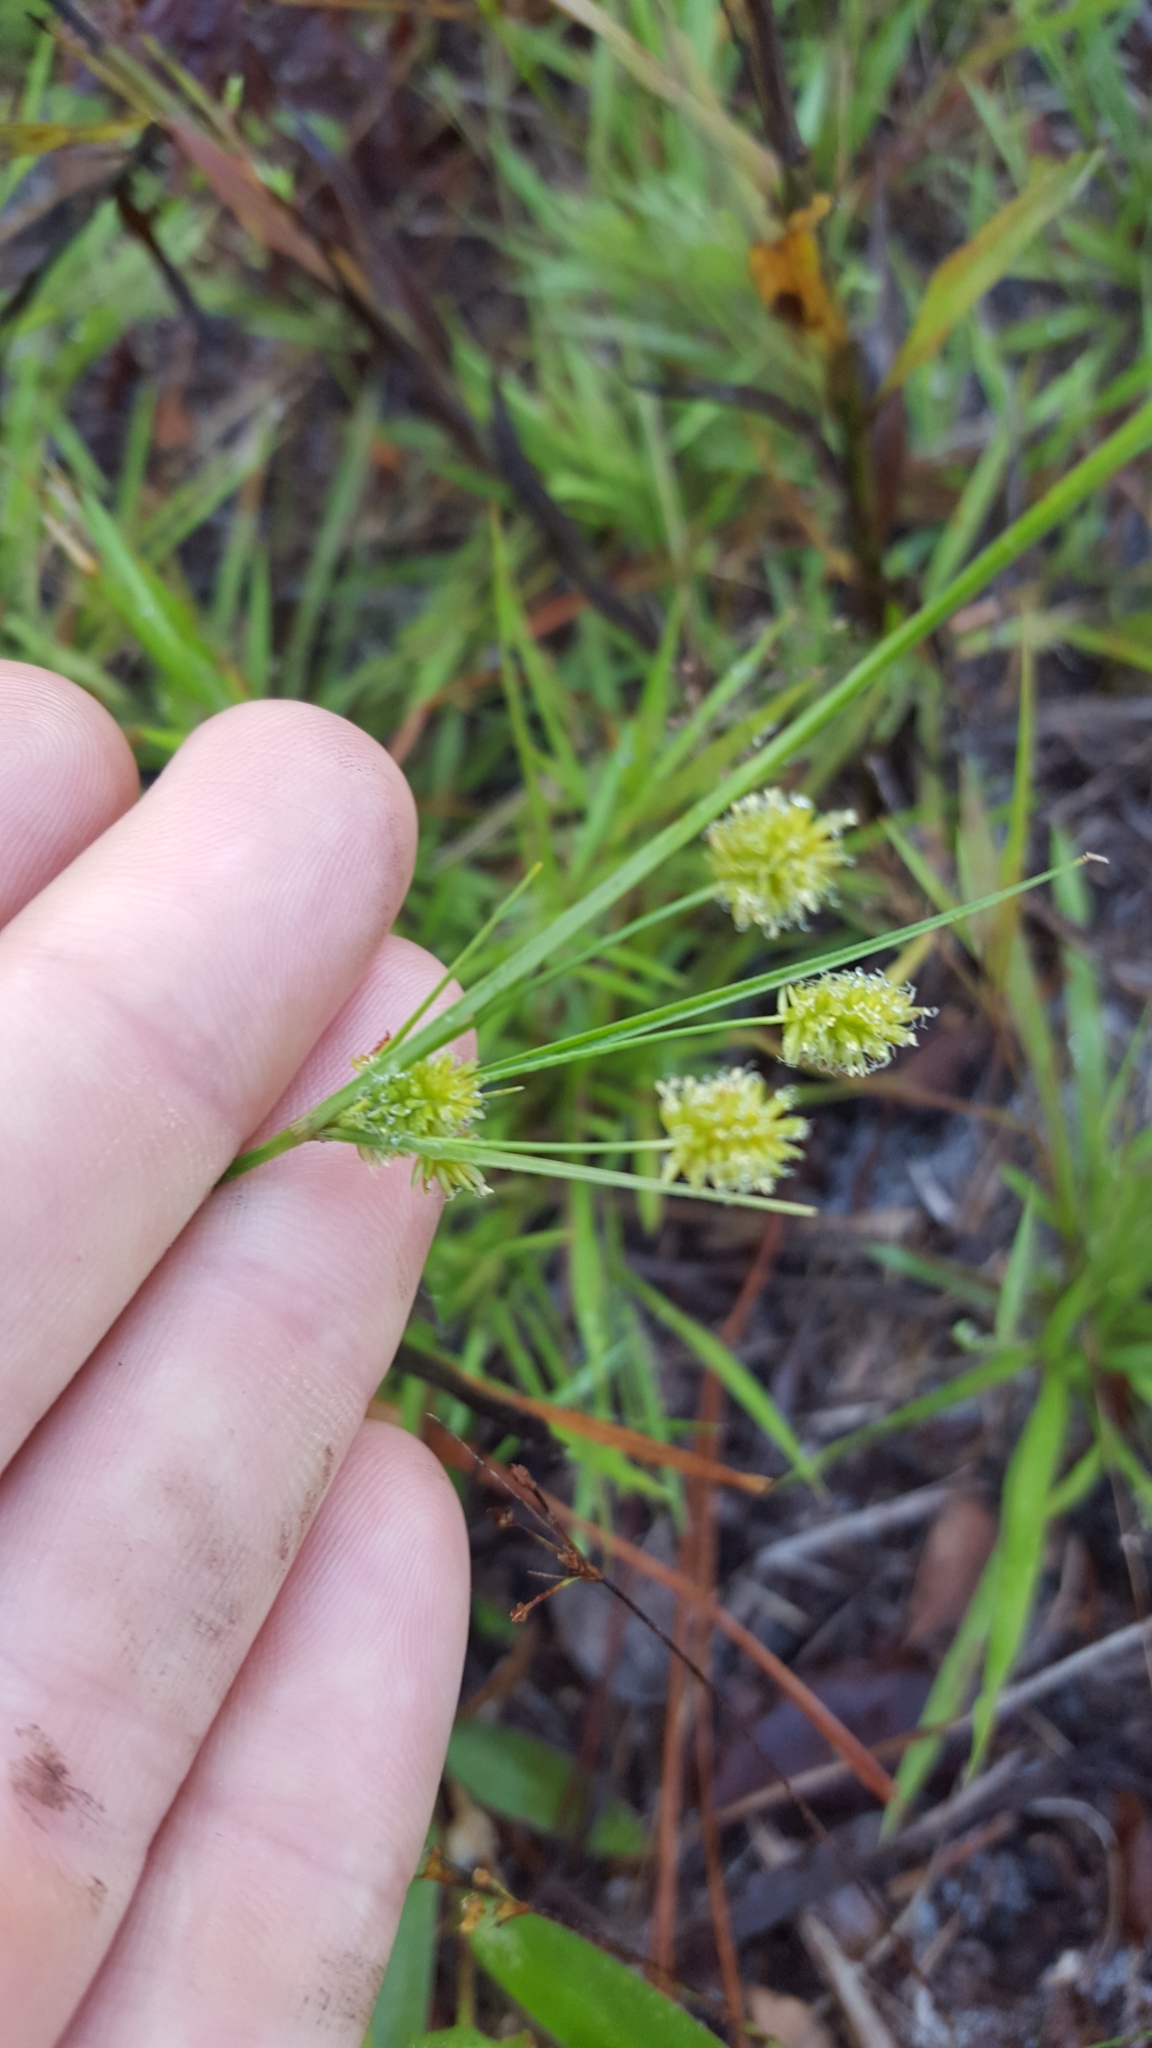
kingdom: Plantae
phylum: Tracheophyta
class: Liliopsida
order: Poales
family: Cyperaceae
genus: Cyperus
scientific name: Cyperus retrorsus
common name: Pinebarren flat sedge
